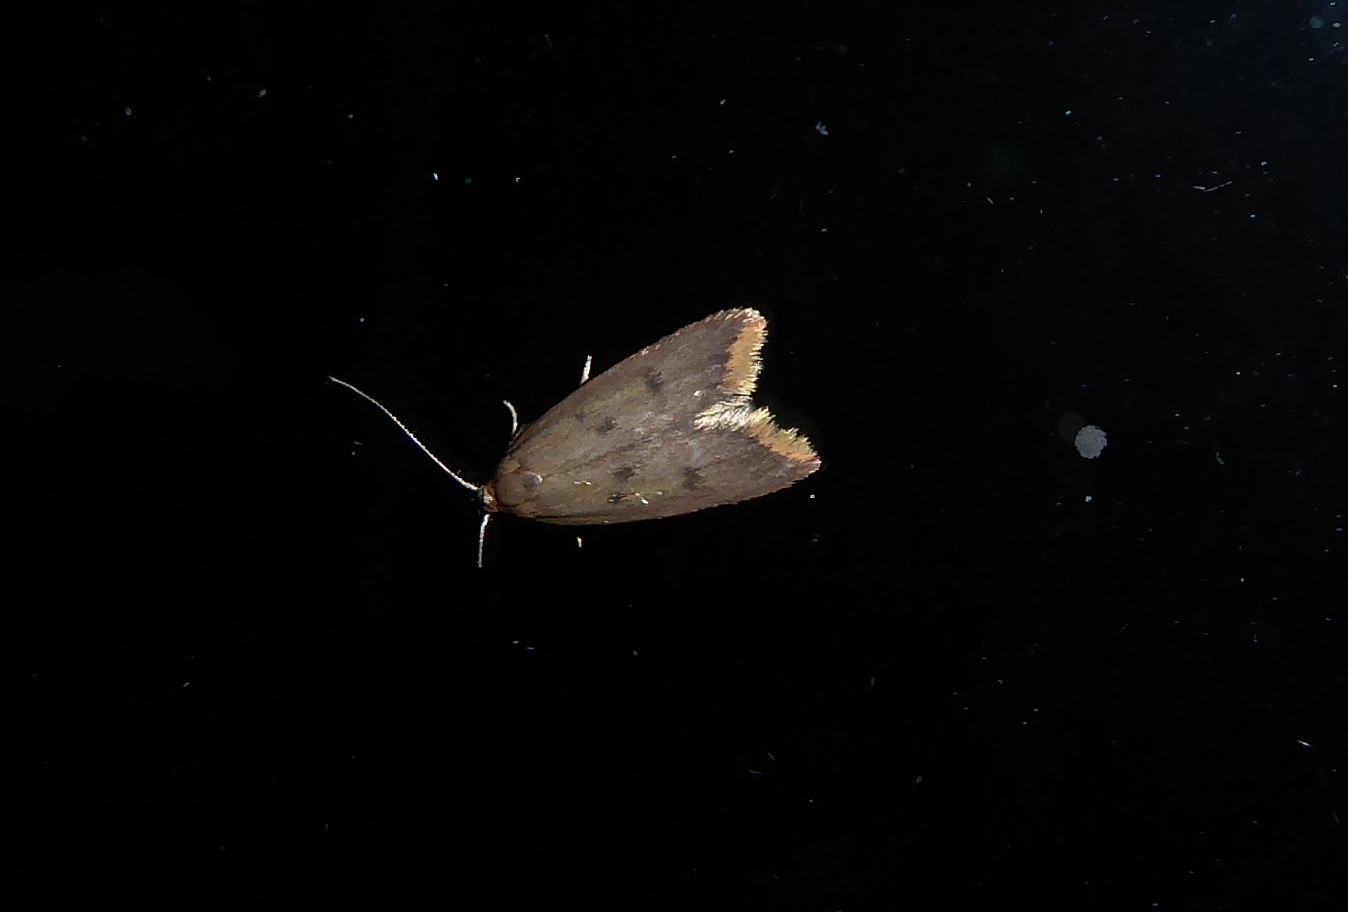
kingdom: Animalia
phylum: Arthropoda
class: Insecta
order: Lepidoptera
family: Oecophoridae
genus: Tachystola
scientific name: Tachystola acroxantha
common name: Ruddy streak
